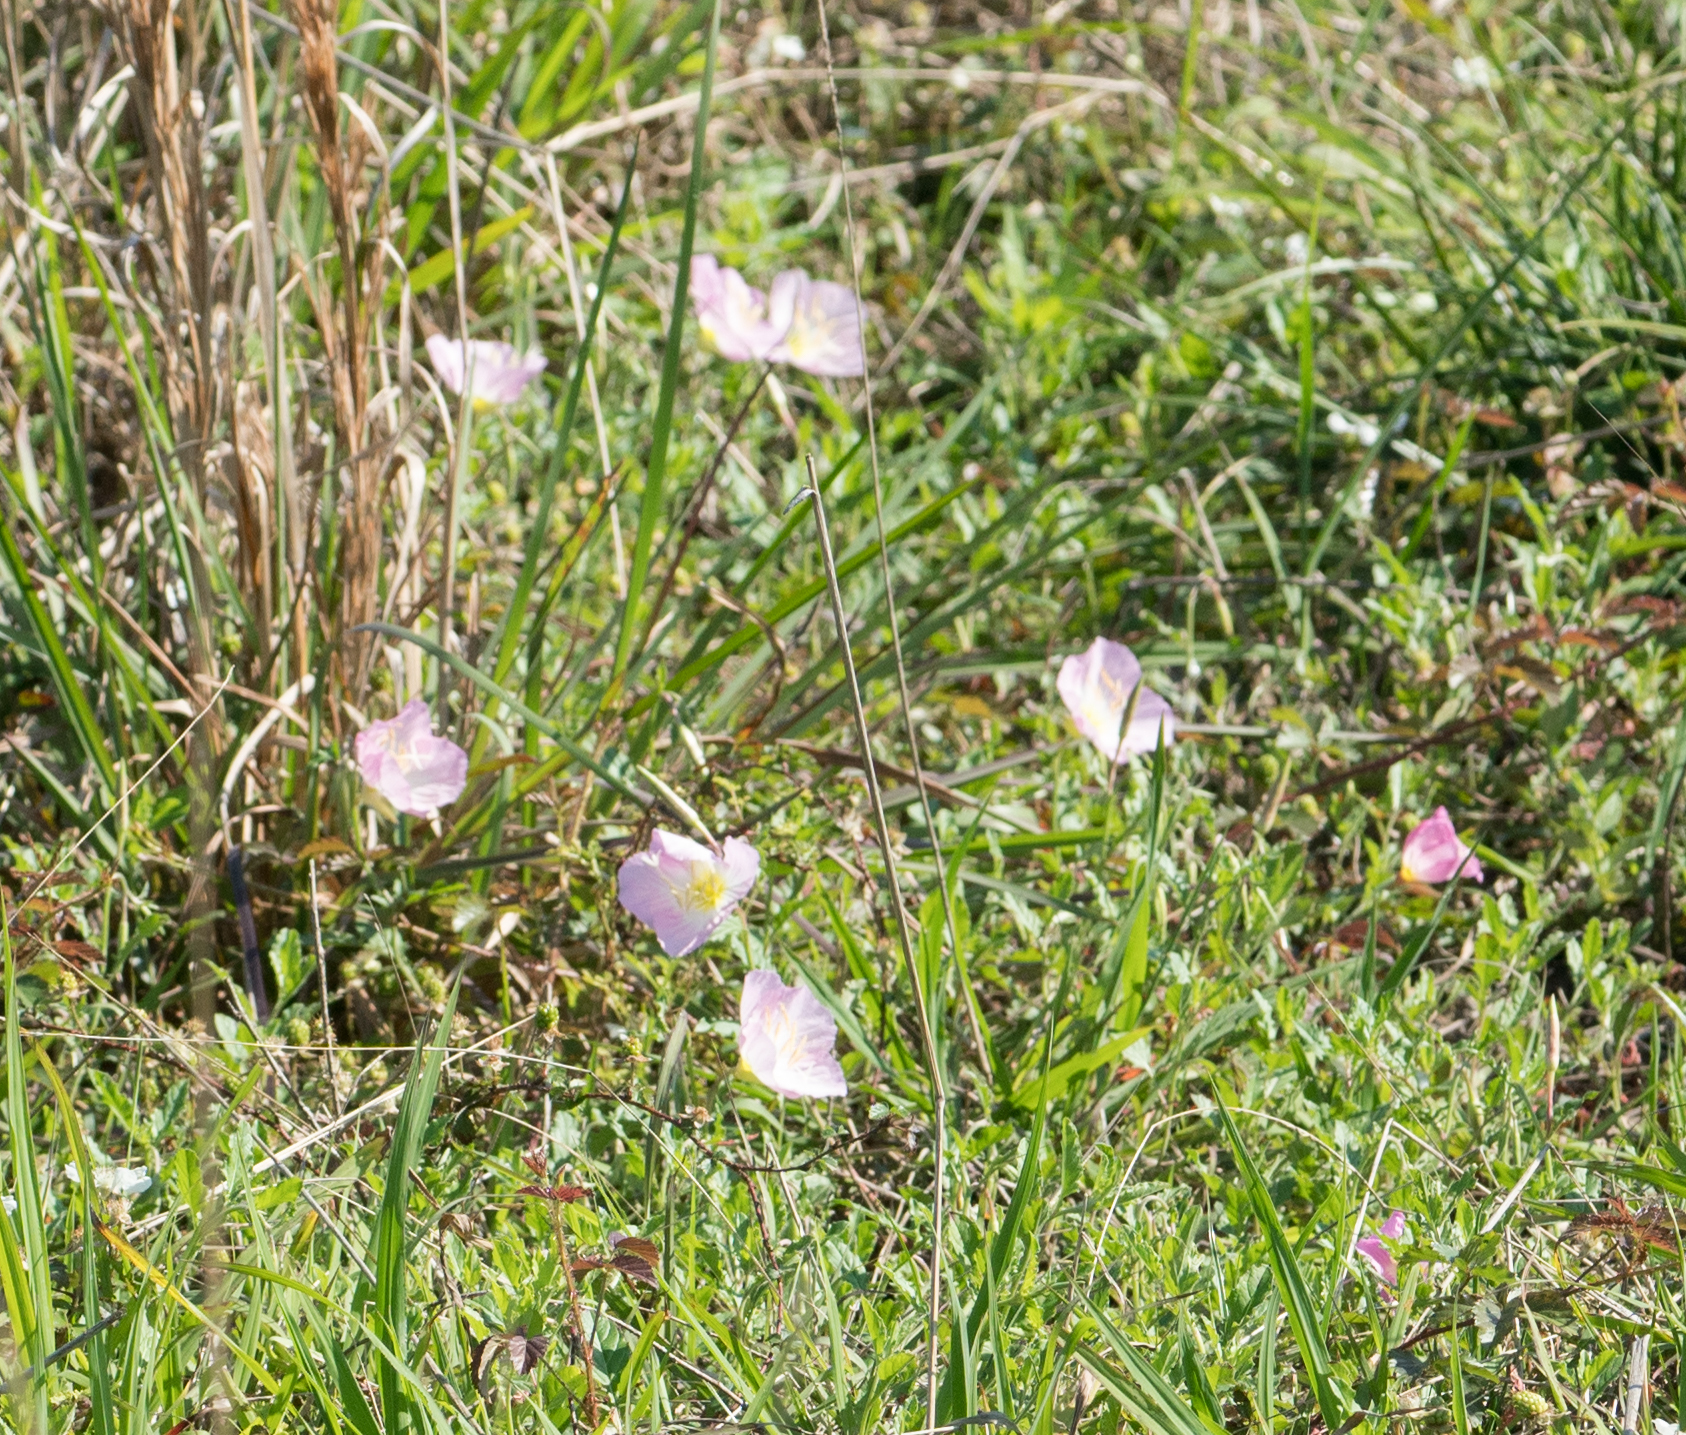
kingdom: Plantae
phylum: Tracheophyta
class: Magnoliopsida
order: Myrtales
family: Onagraceae
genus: Oenothera
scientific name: Oenothera speciosa
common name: White evening-primrose
